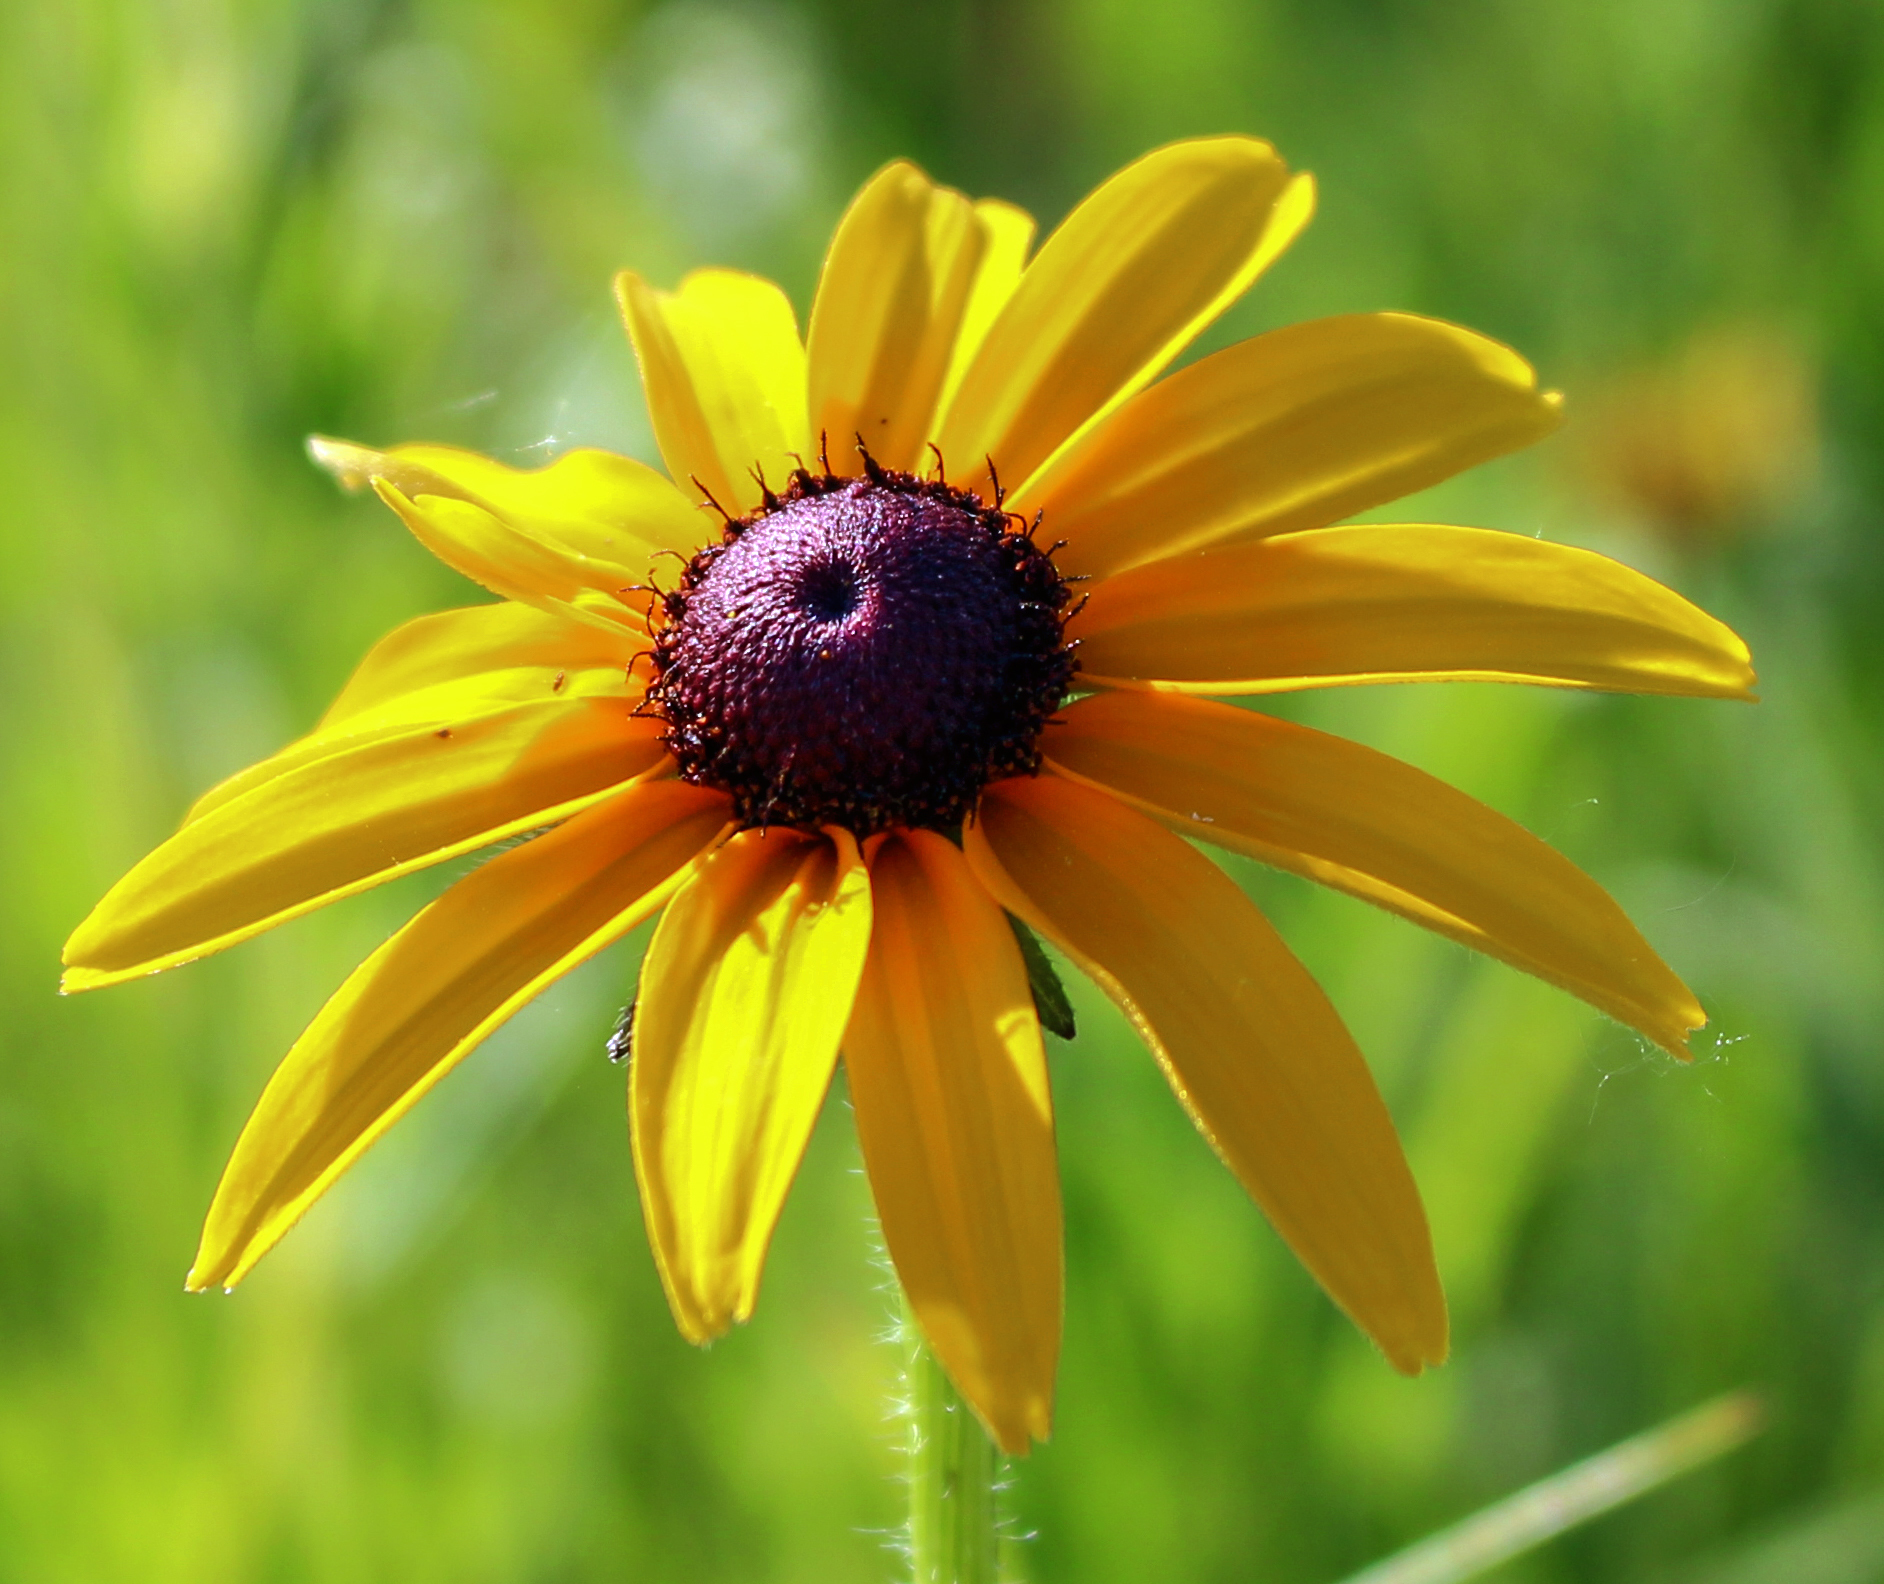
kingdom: Plantae
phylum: Tracheophyta
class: Magnoliopsida
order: Asterales
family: Asteraceae
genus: Rudbeckia
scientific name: Rudbeckia hirta
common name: Black-eyed-susan
